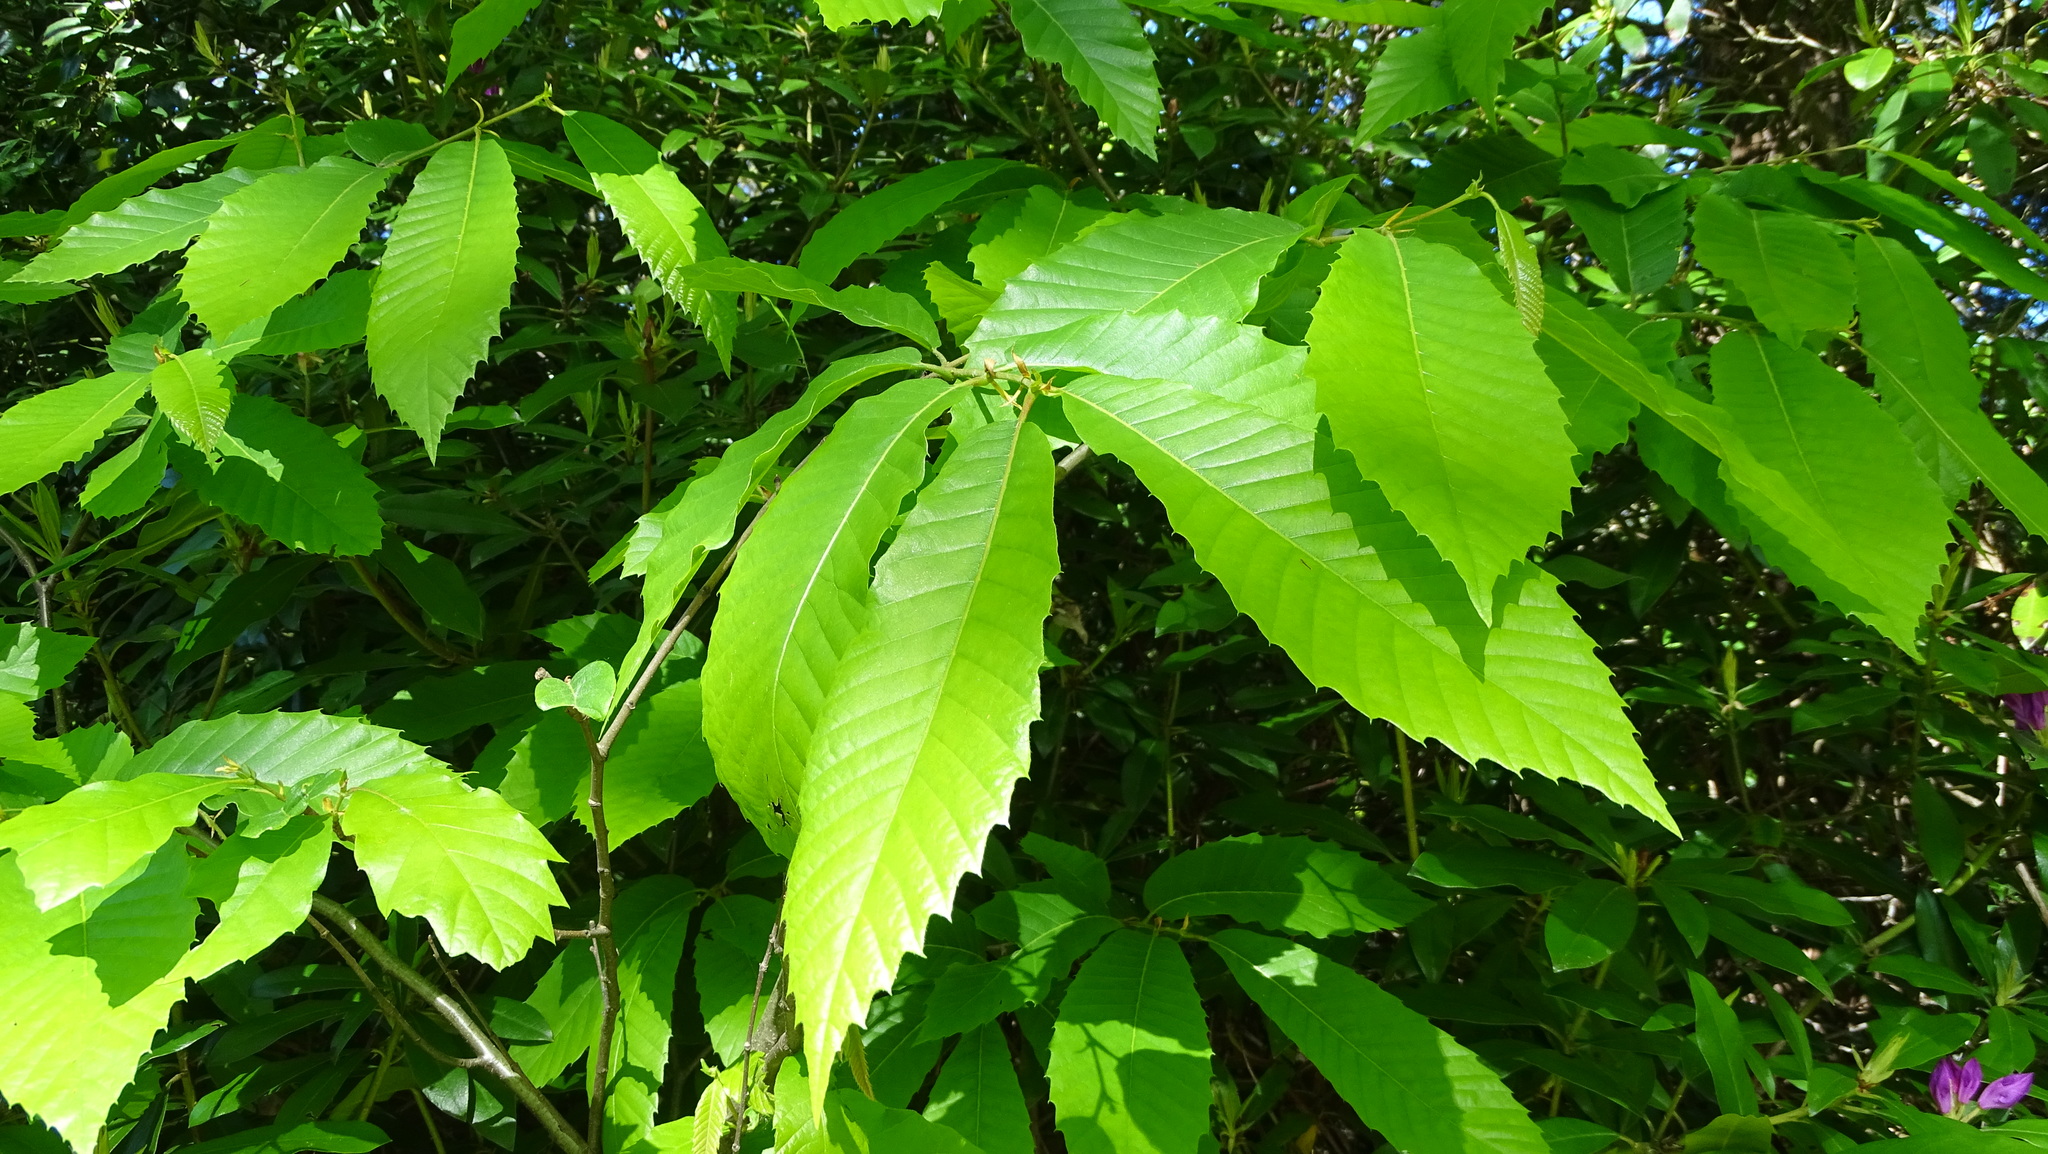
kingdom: Plantae
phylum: Tracheophyta
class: Magnoliopsida
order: Fagales
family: Fagaceae
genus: Castanea
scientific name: Castanea sativa
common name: Sweet chestnut
